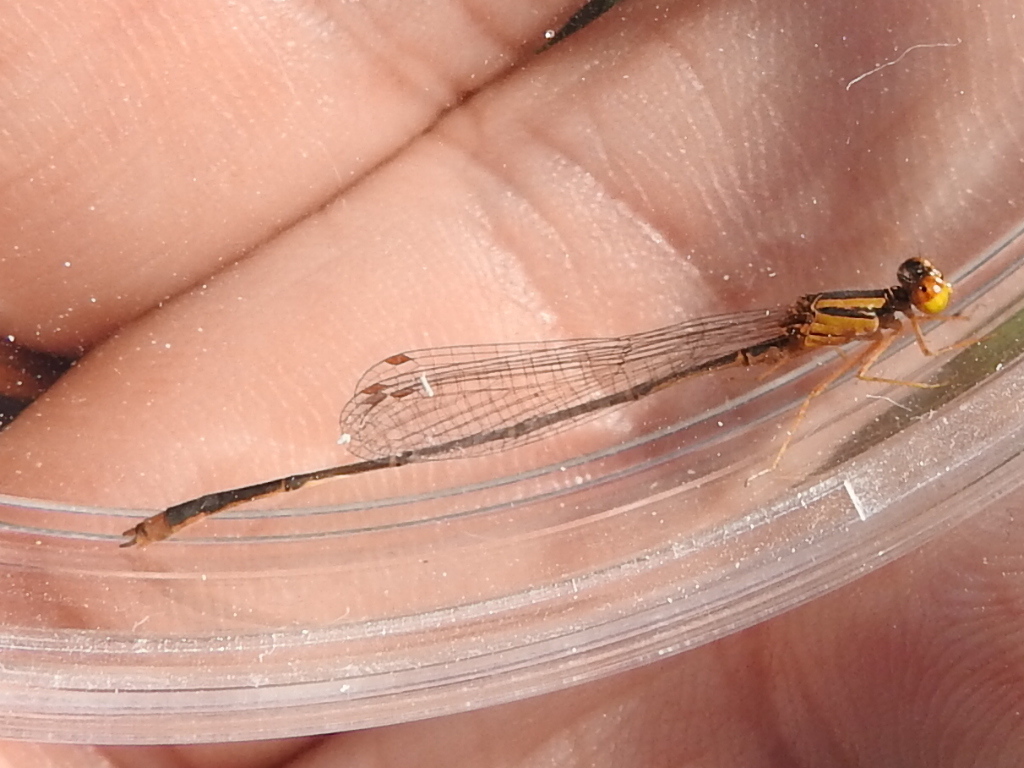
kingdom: Animalia
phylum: Arthropoda
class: Insecta
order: Odonata
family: Coenagrionidae
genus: Enallagma
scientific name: Enallagma signatum
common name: Orange bluet
